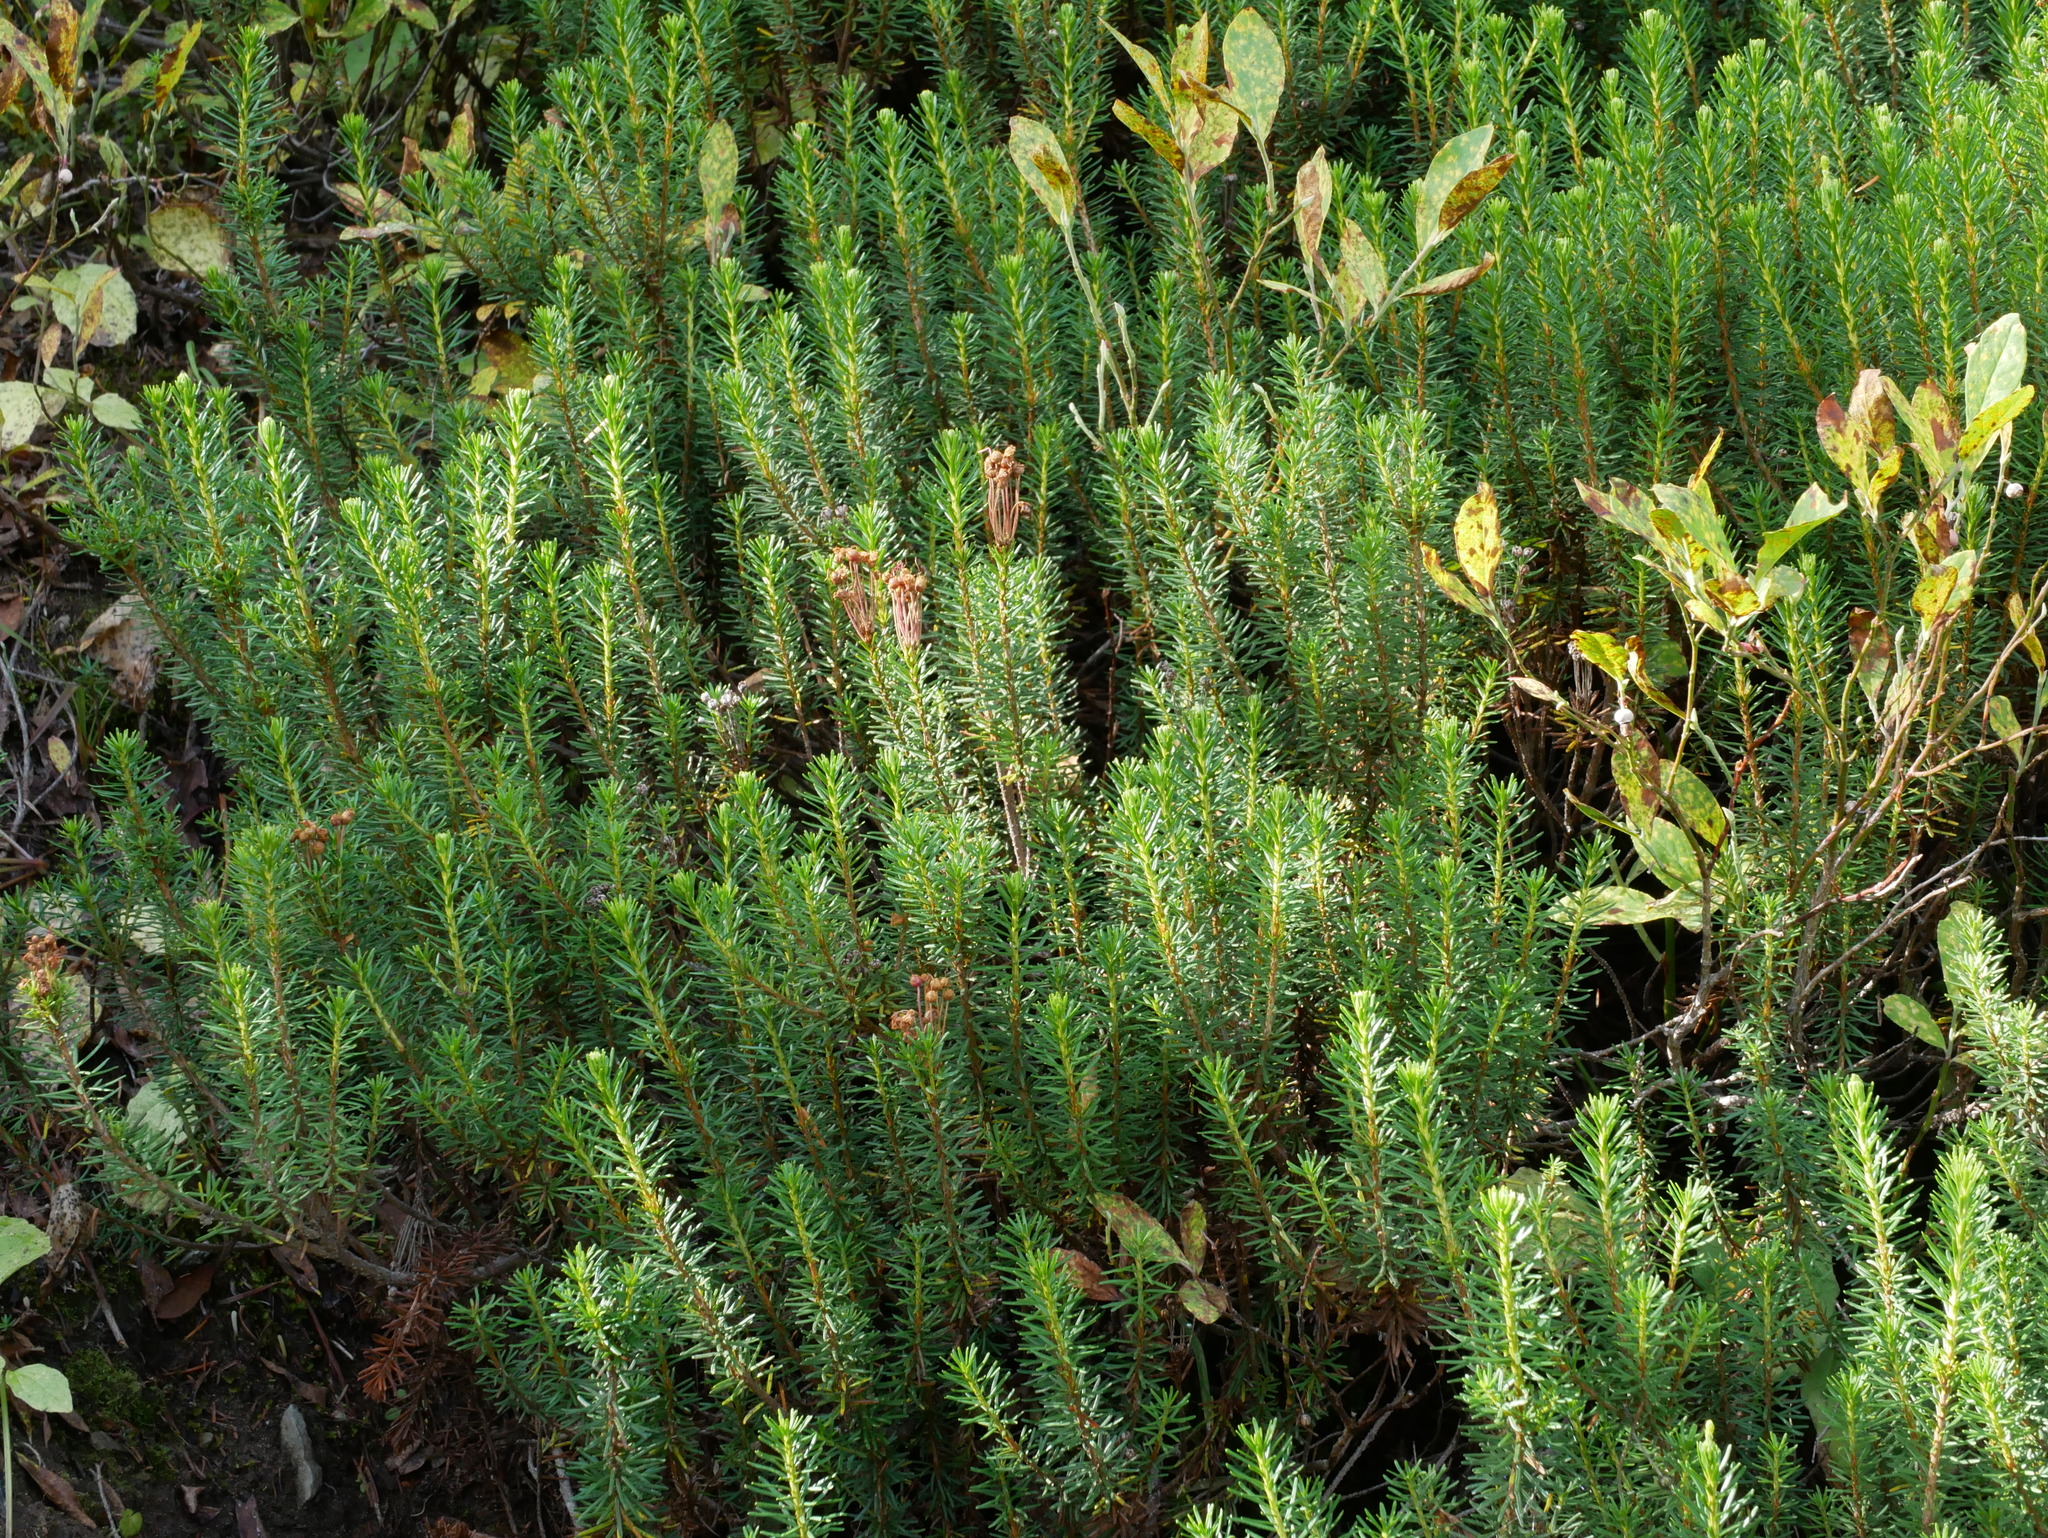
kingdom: Plantae
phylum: Tracheophyta
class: Magnoliopsida
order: Ericales
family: Ericaceae
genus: Phyllodoce
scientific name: Phyllodoce empetriformis
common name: Pink mountain heather
